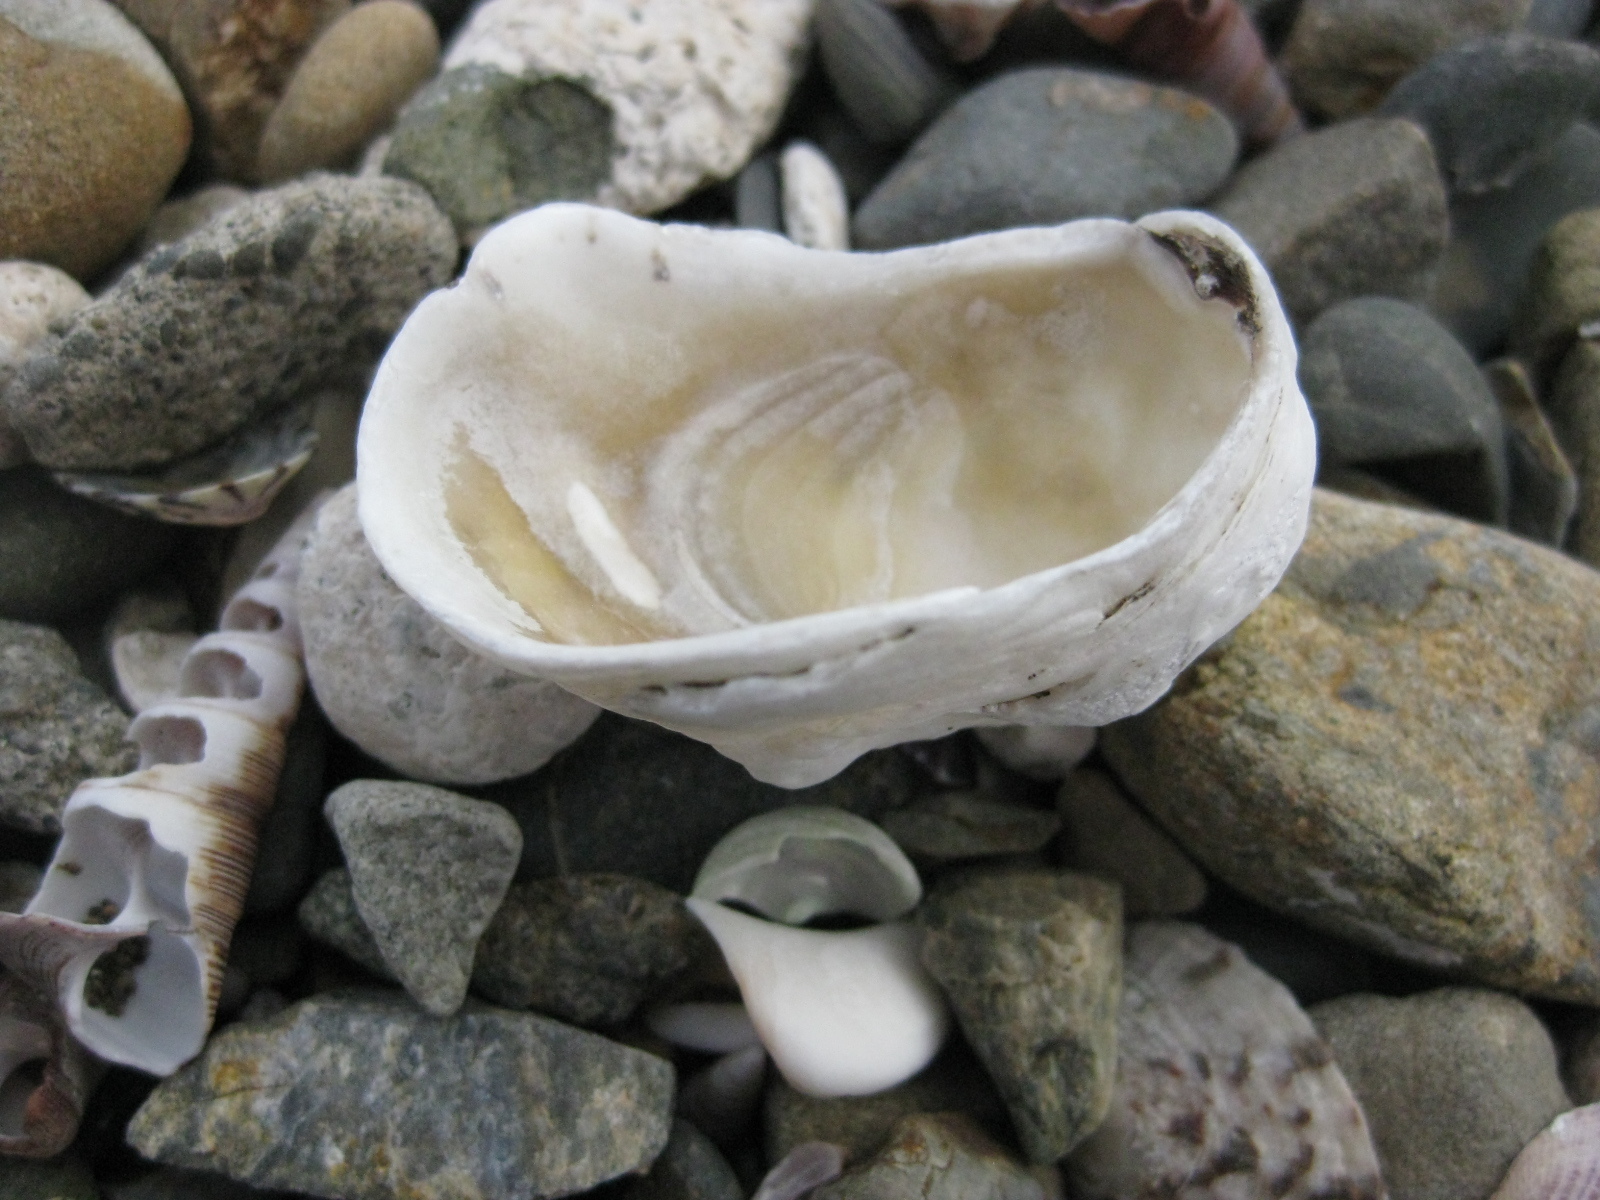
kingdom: Animalia
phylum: Mollusca
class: Bivalvia
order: Ostreida
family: Ostreidae
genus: Ostrea
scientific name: Ostrea chilensis
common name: Chilean oyster
